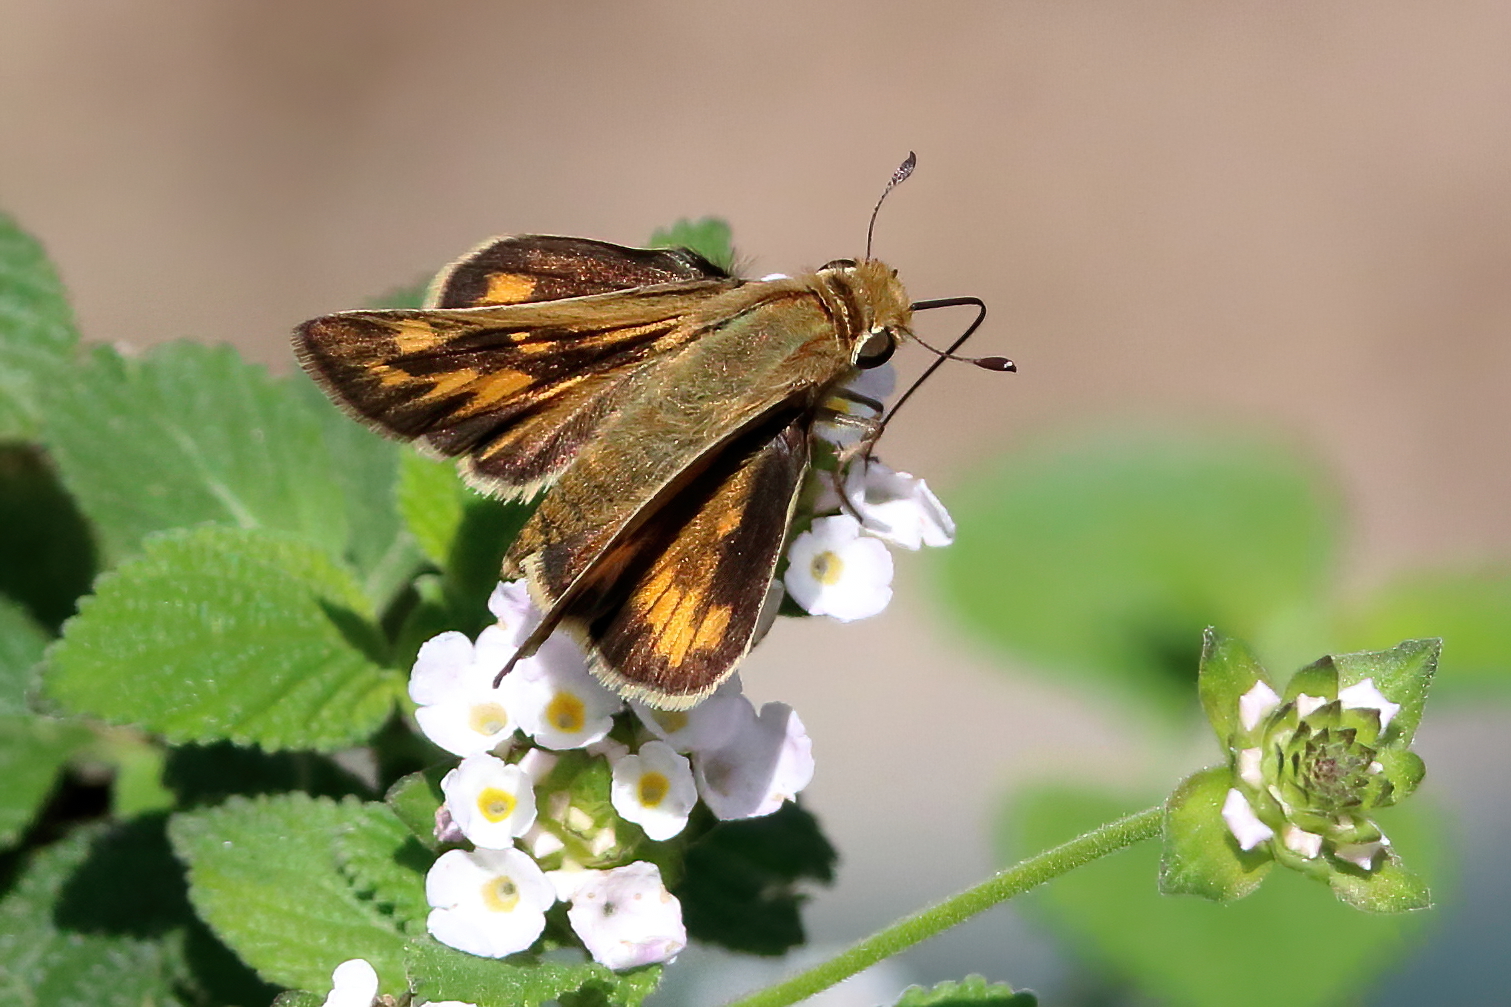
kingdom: Animalia
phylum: Arthropoda
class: Insecta
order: Lepidoptera
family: Hesperiidae
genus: Hylephila
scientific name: Hylephila phyleus
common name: Fiery skipper
